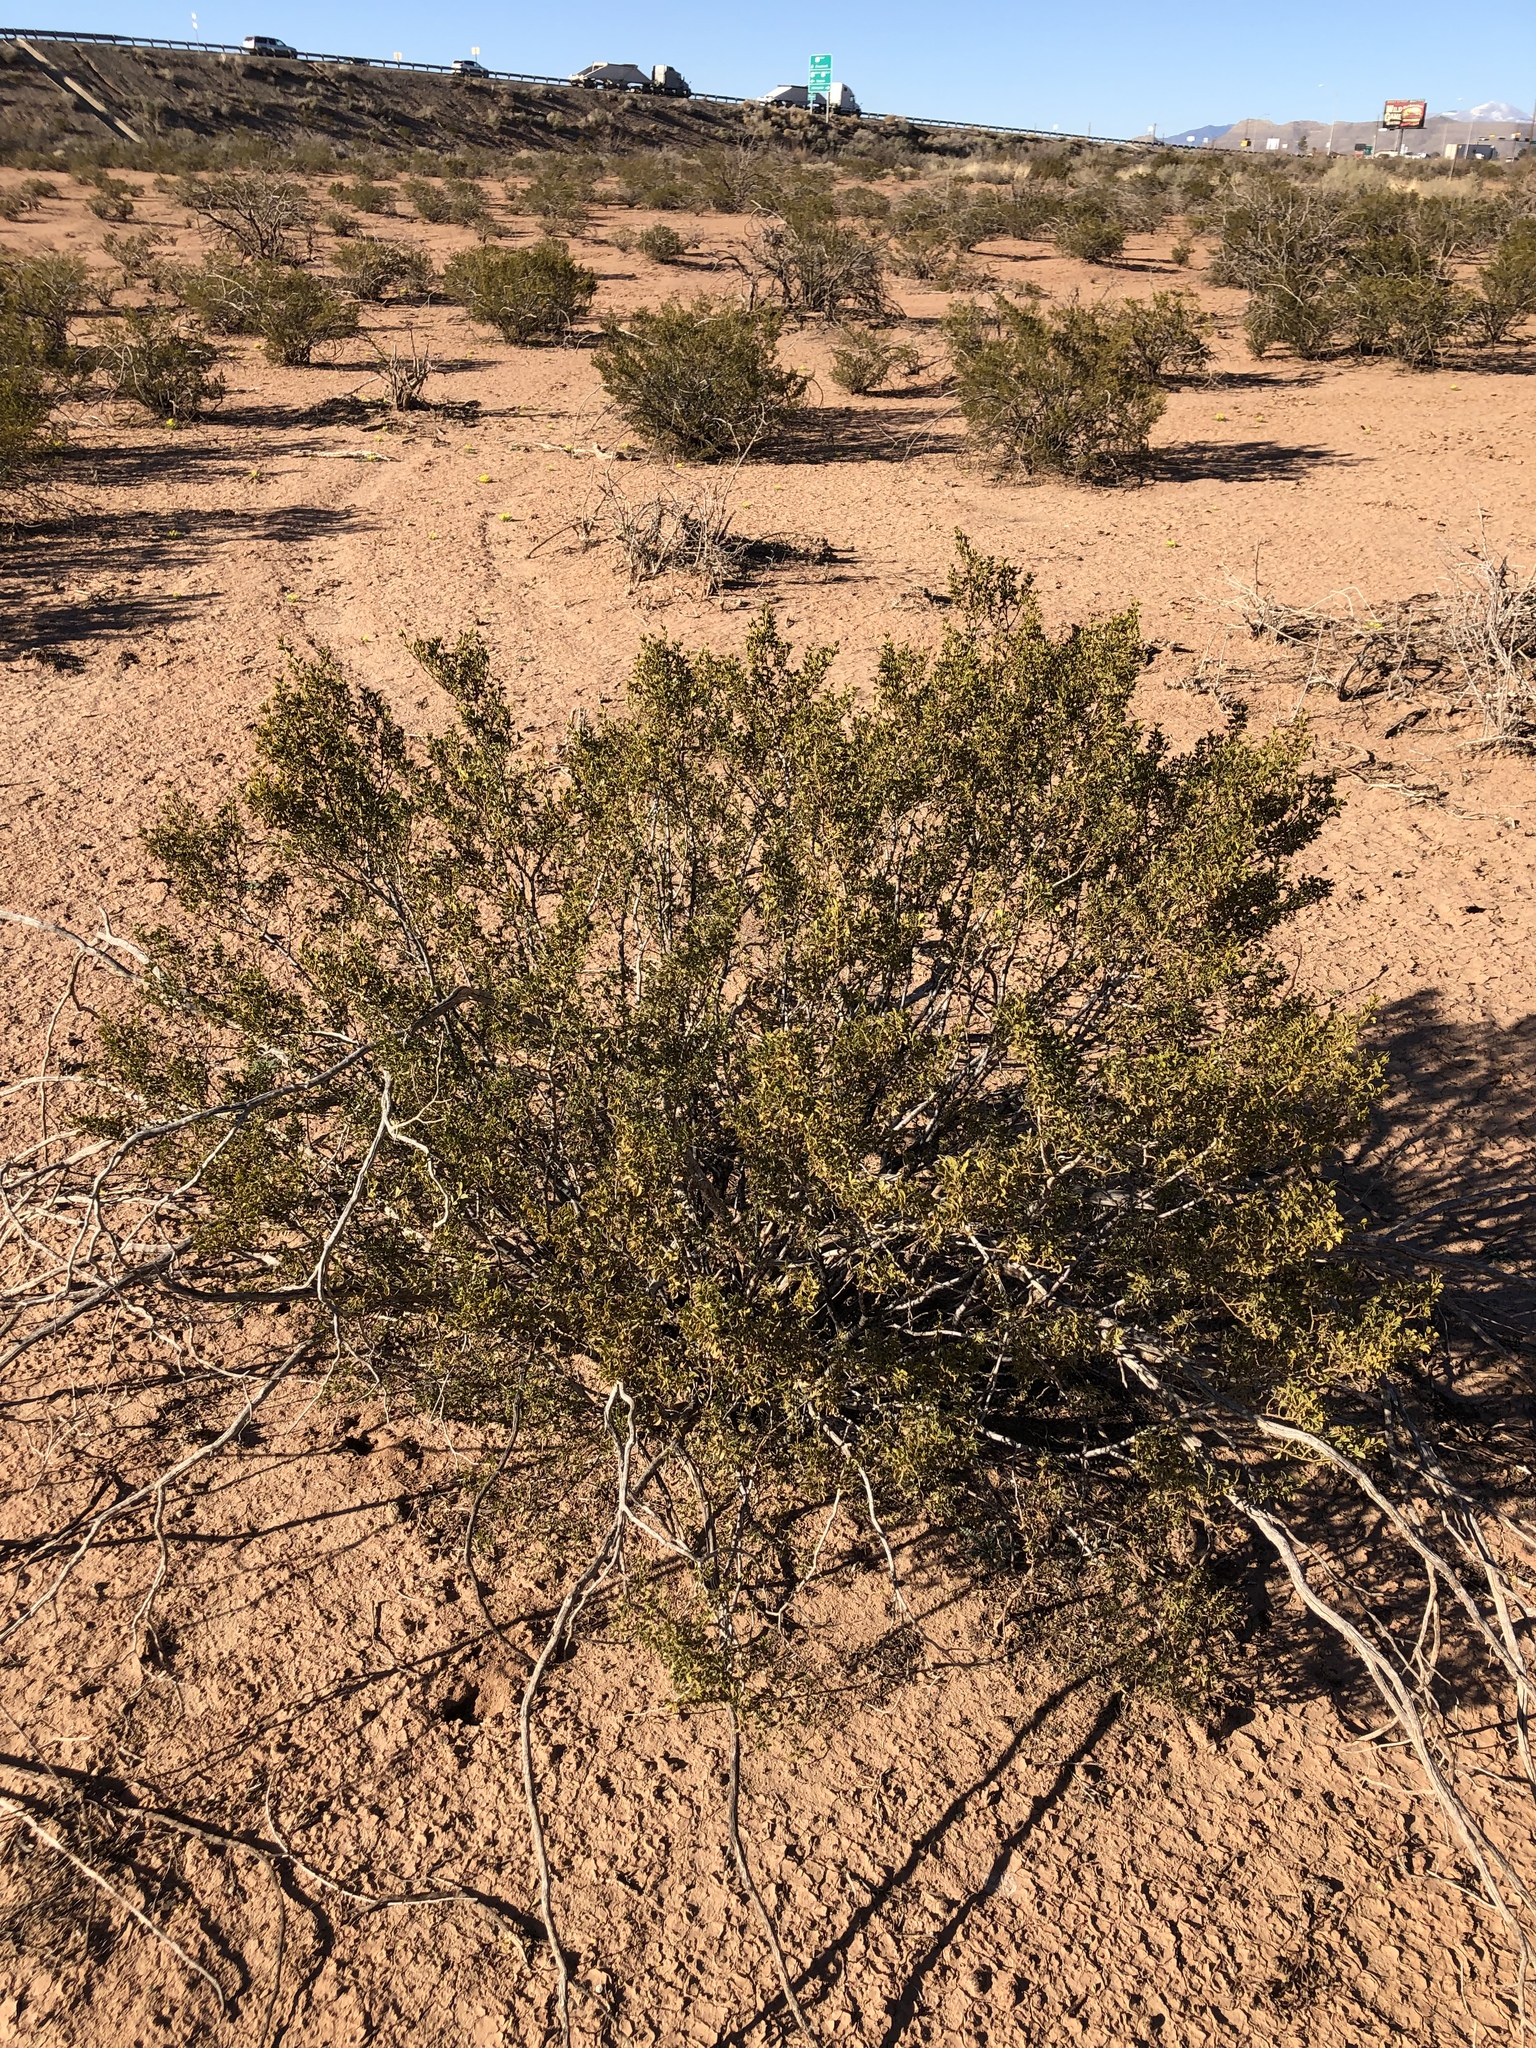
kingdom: Plantae
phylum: Tracheophyta
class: Magnoliopsida
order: Zygophyllales
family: Zygophyllaceae
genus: Larrea
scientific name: Larrea tridentata
